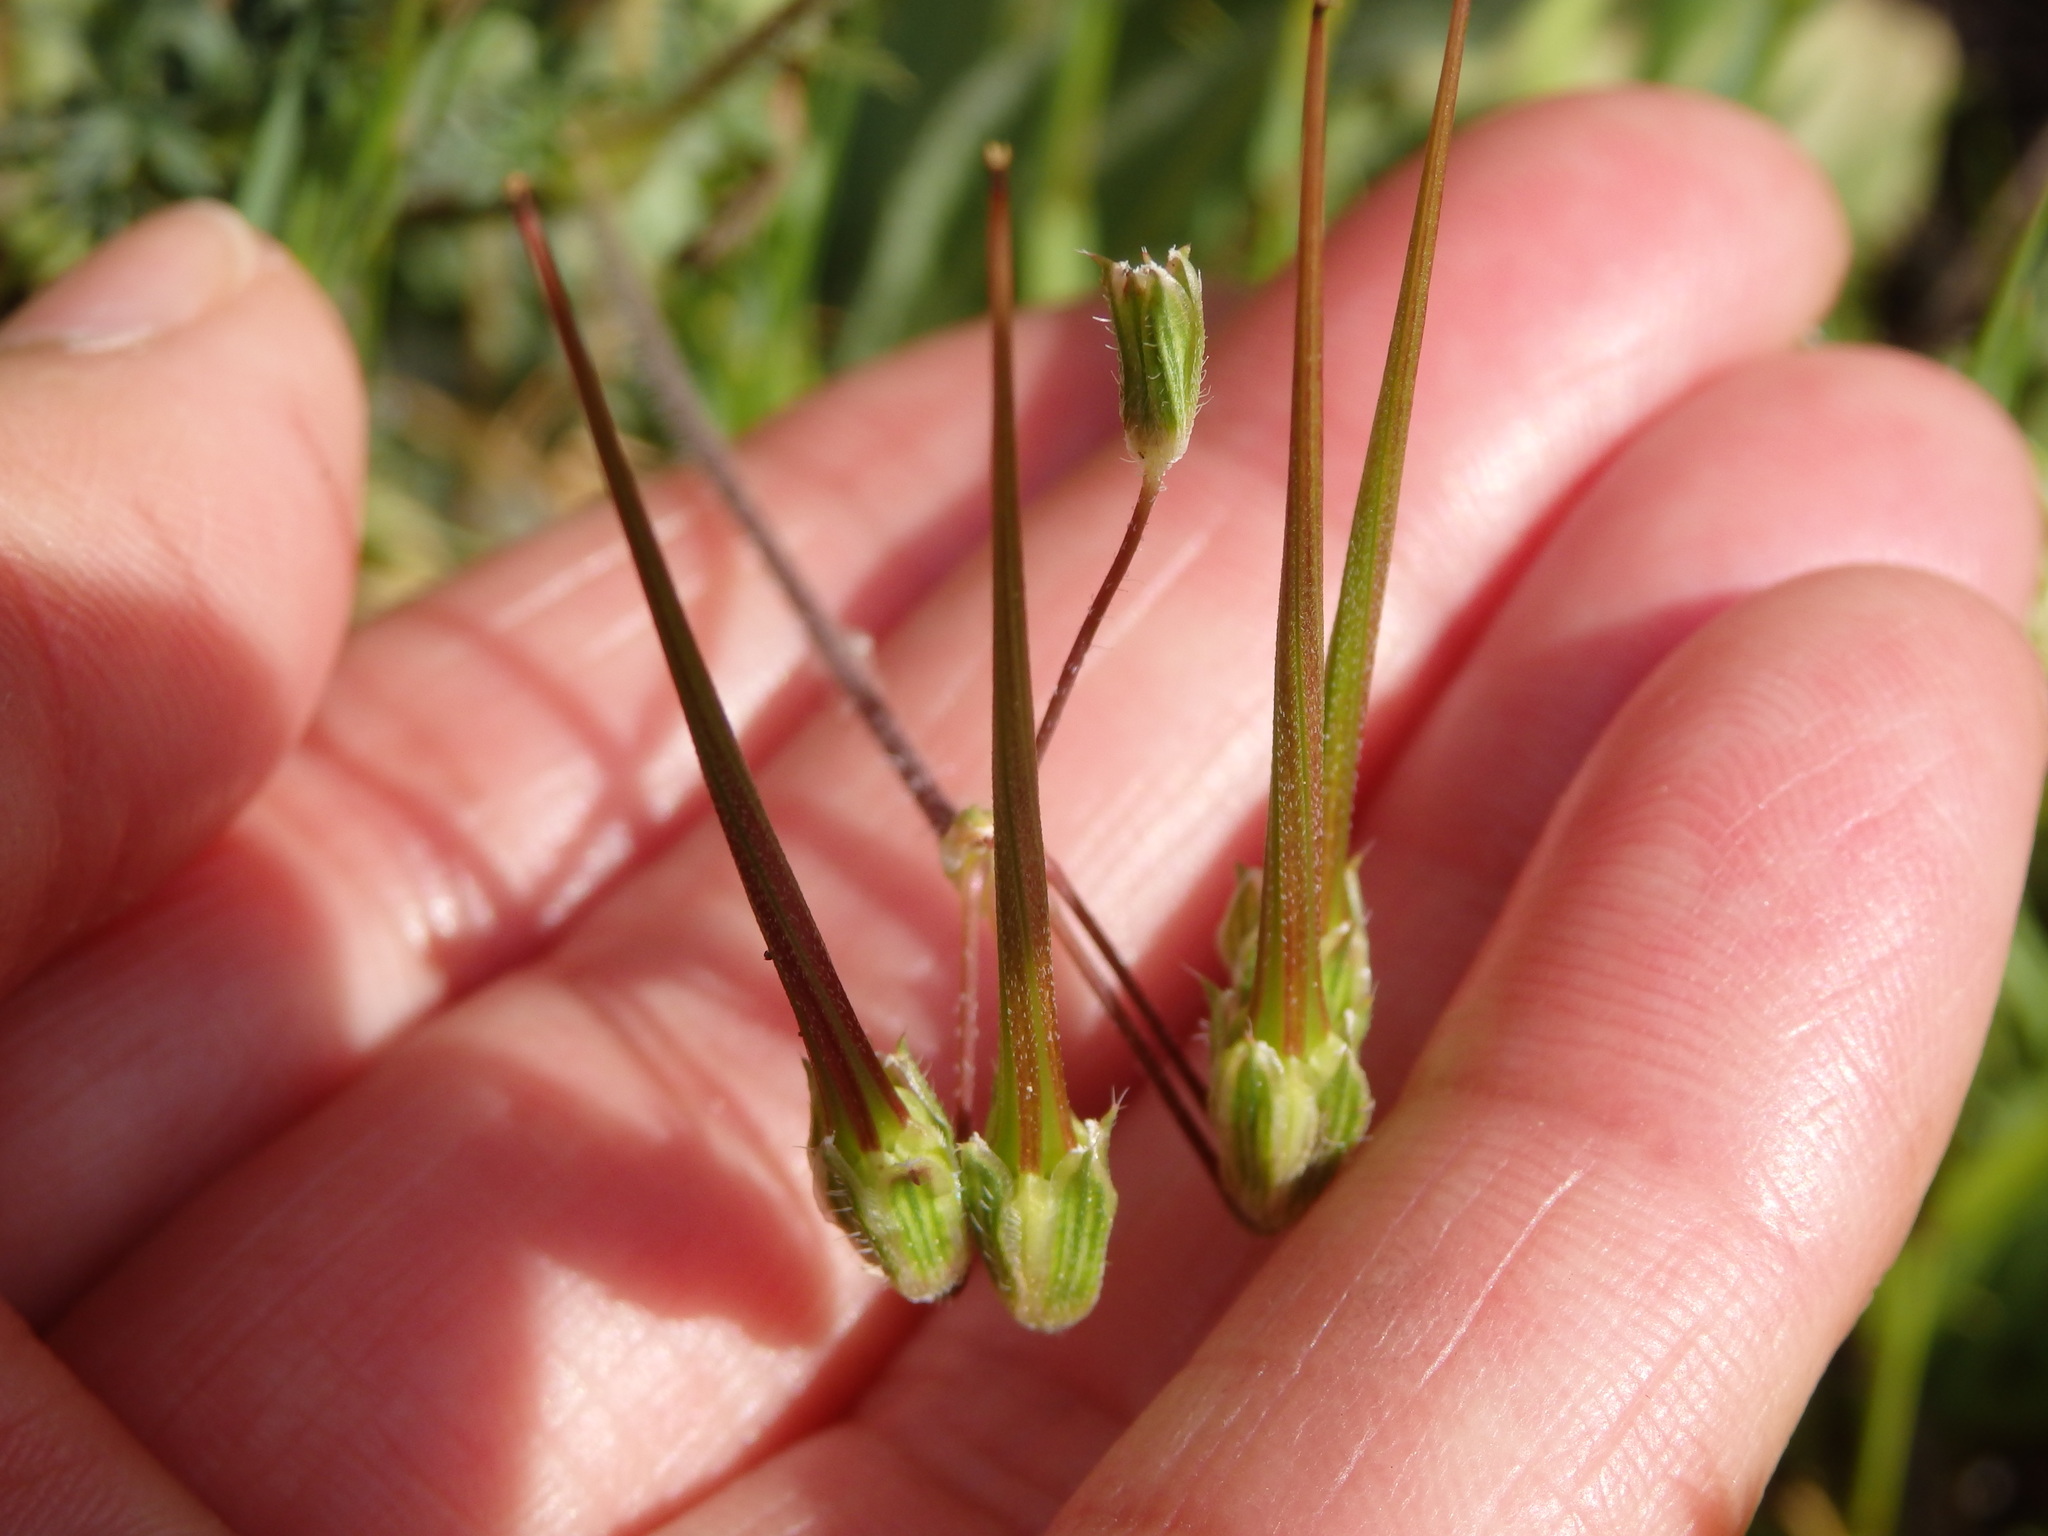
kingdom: Plantae
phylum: Tracheophyta
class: Magnoliopsida
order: Geraniales
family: Geraniaceae
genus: Erodium
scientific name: Erodium cicutarium
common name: Common stork's-bill
